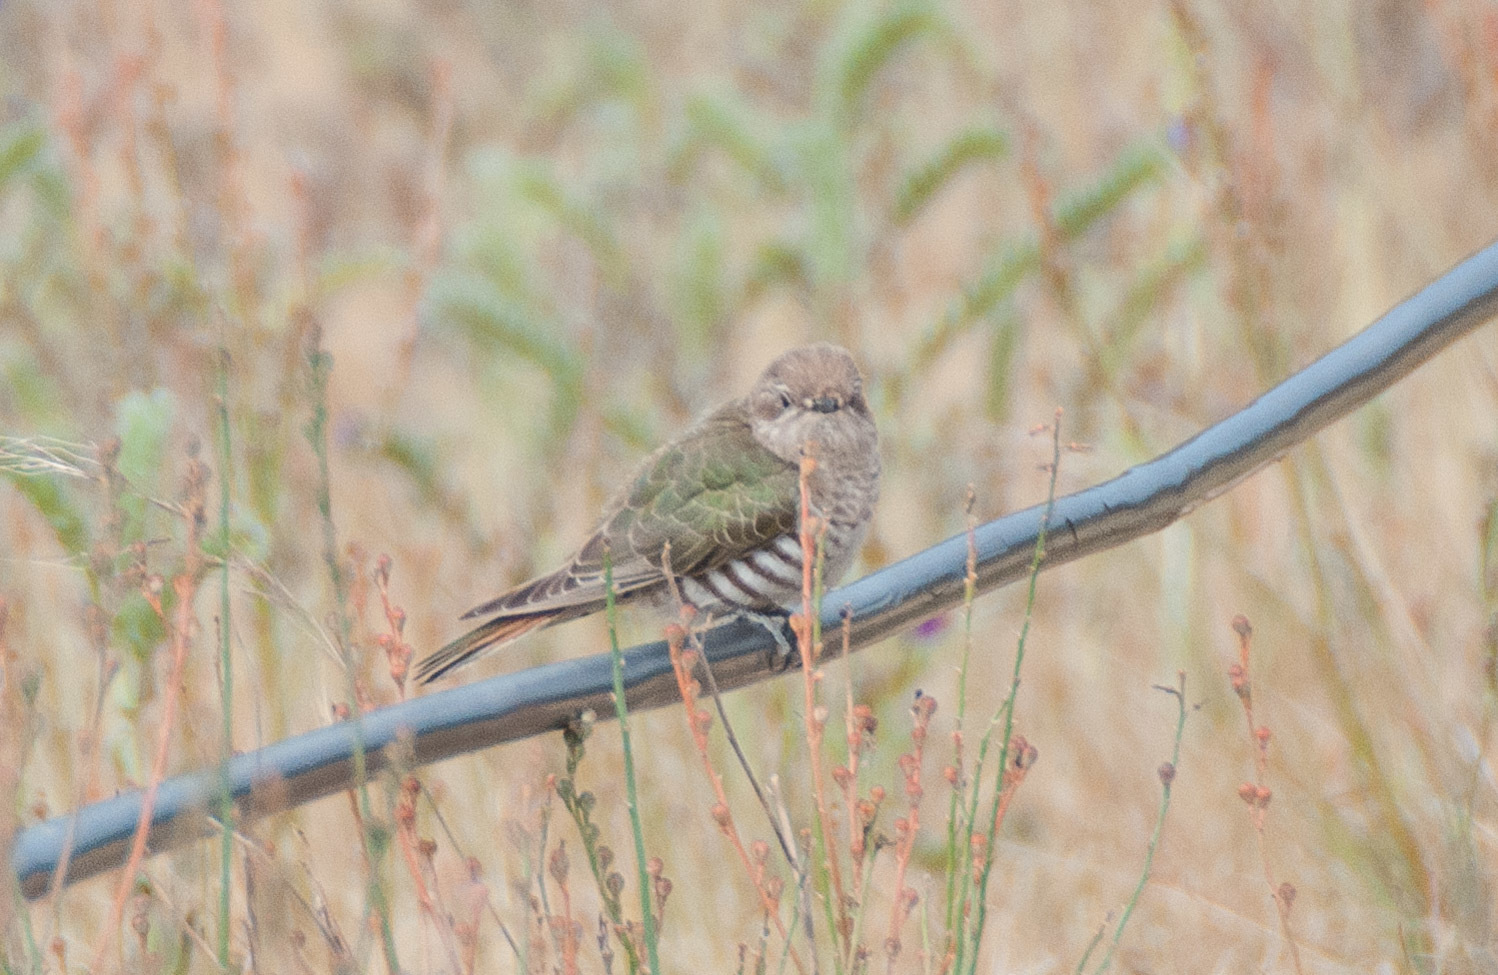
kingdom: Animalia
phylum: Chordata
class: Aves
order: Cuculiformes
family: Cuculidae
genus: Chrysococcyx
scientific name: Chrysococcyx basalis
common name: Horsfield's bronze cuckoo
